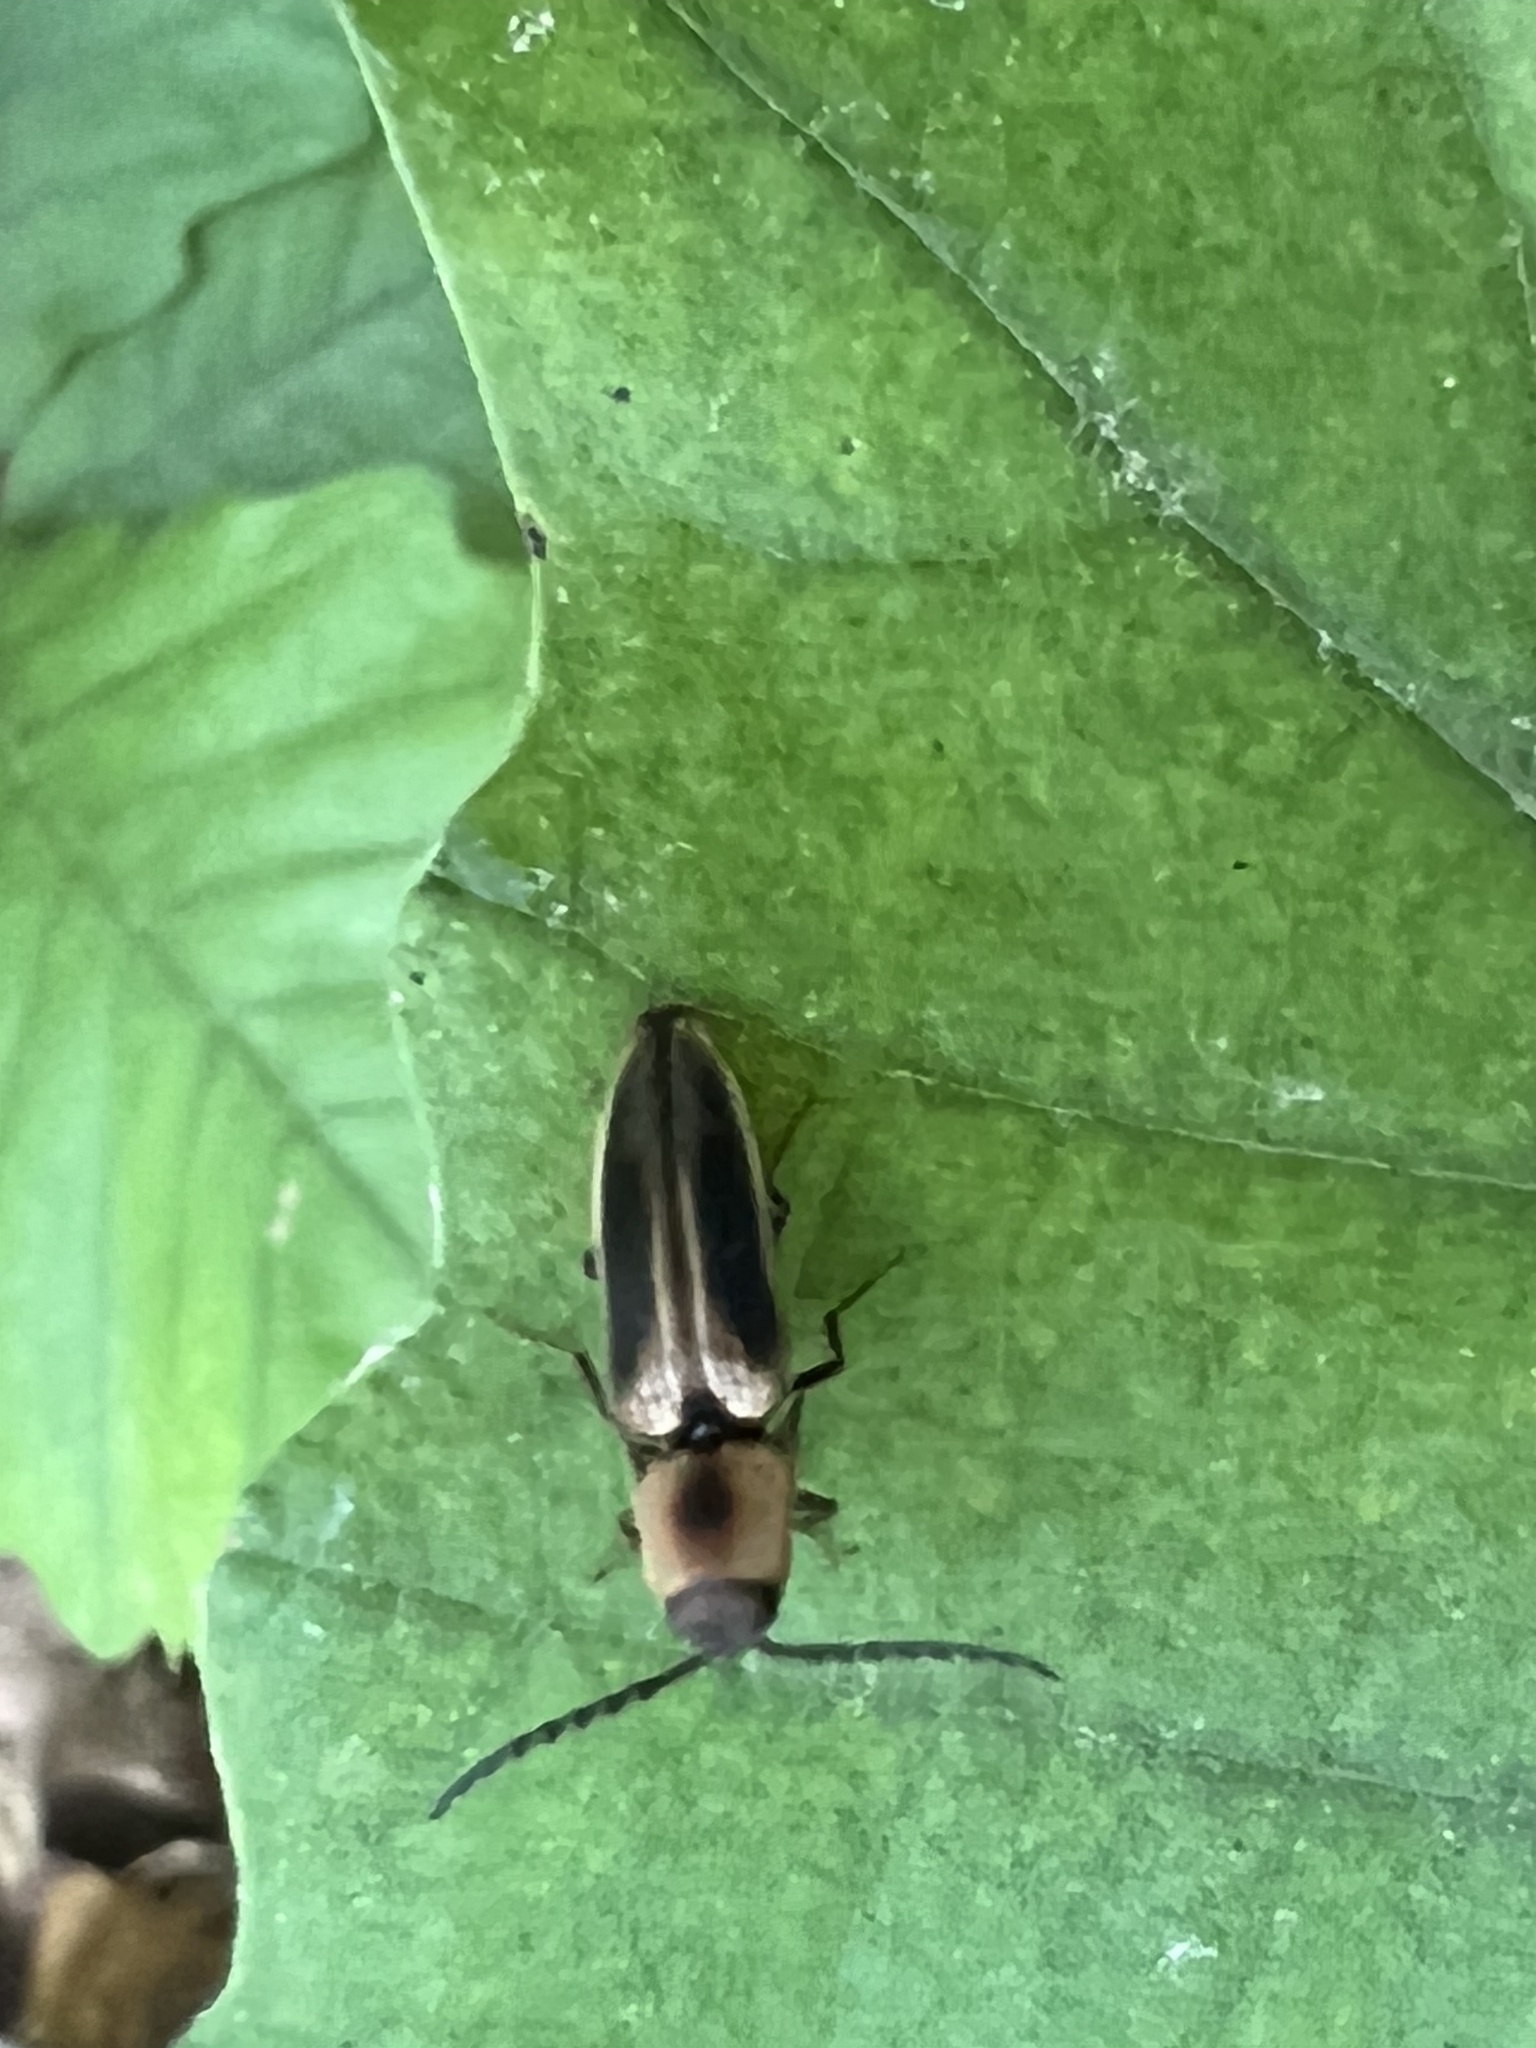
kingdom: Animalia
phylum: Arthropoda
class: Insecta
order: Coleoptera
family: Elateridae
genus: Megapenthes
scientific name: Megapenthes
